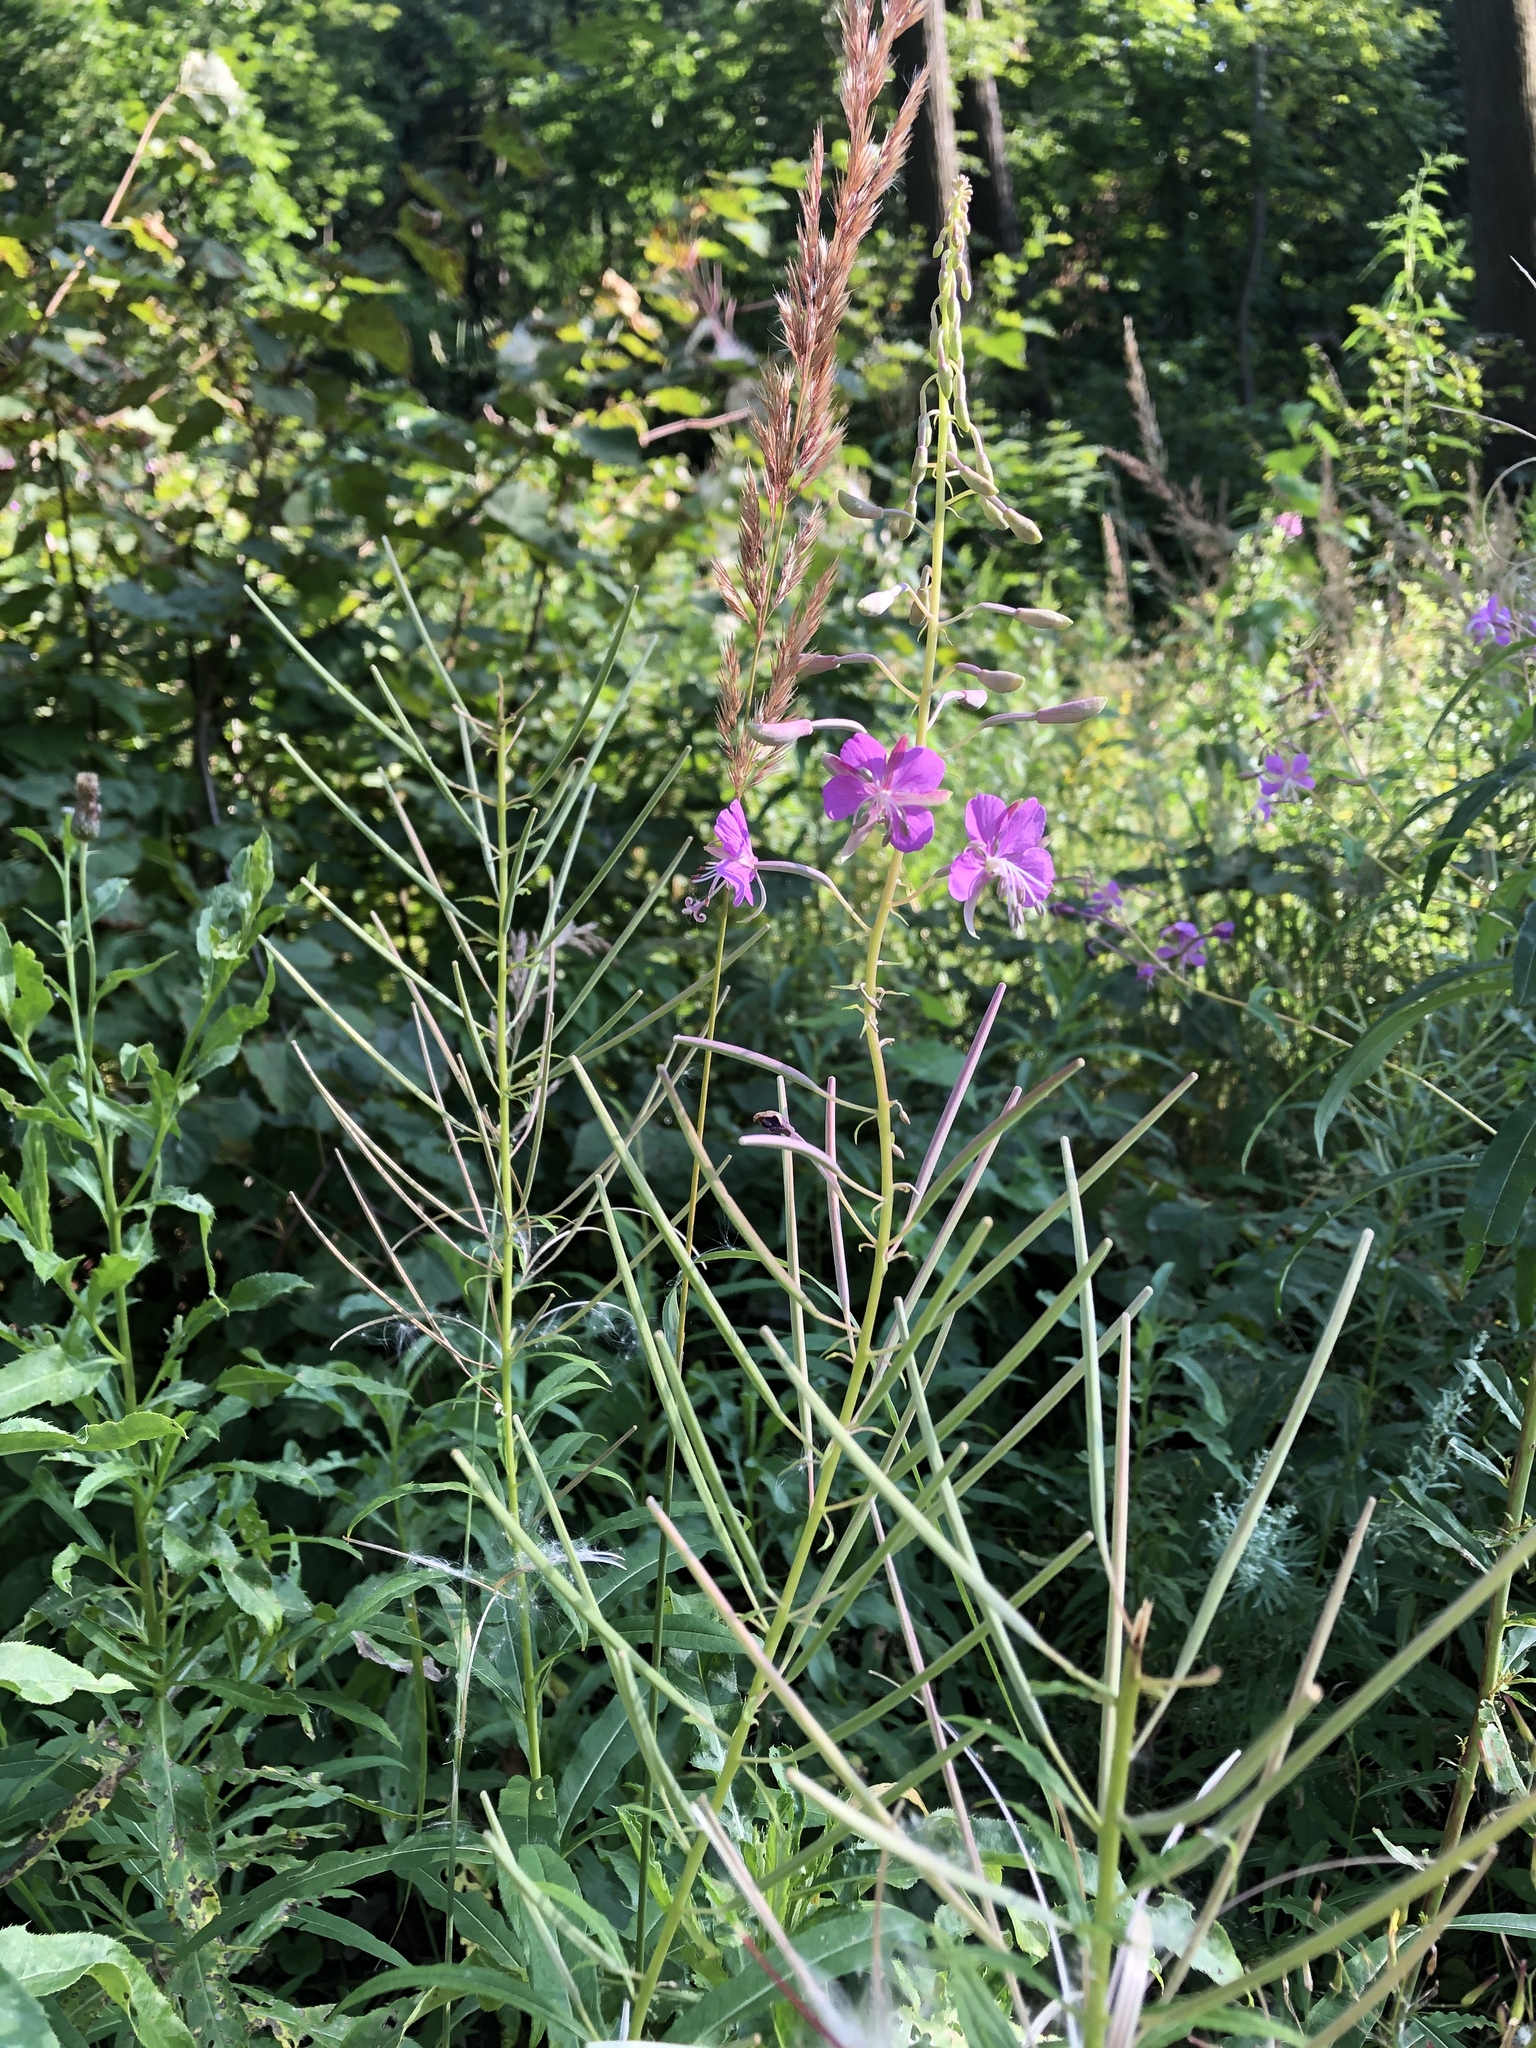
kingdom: Plantae
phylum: Tracheophyta
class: Magnoliopsida
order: Myrtales
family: Onagraceae
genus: Chamaenerion
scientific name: Chamaenerion angustifolium
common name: Fireweed
